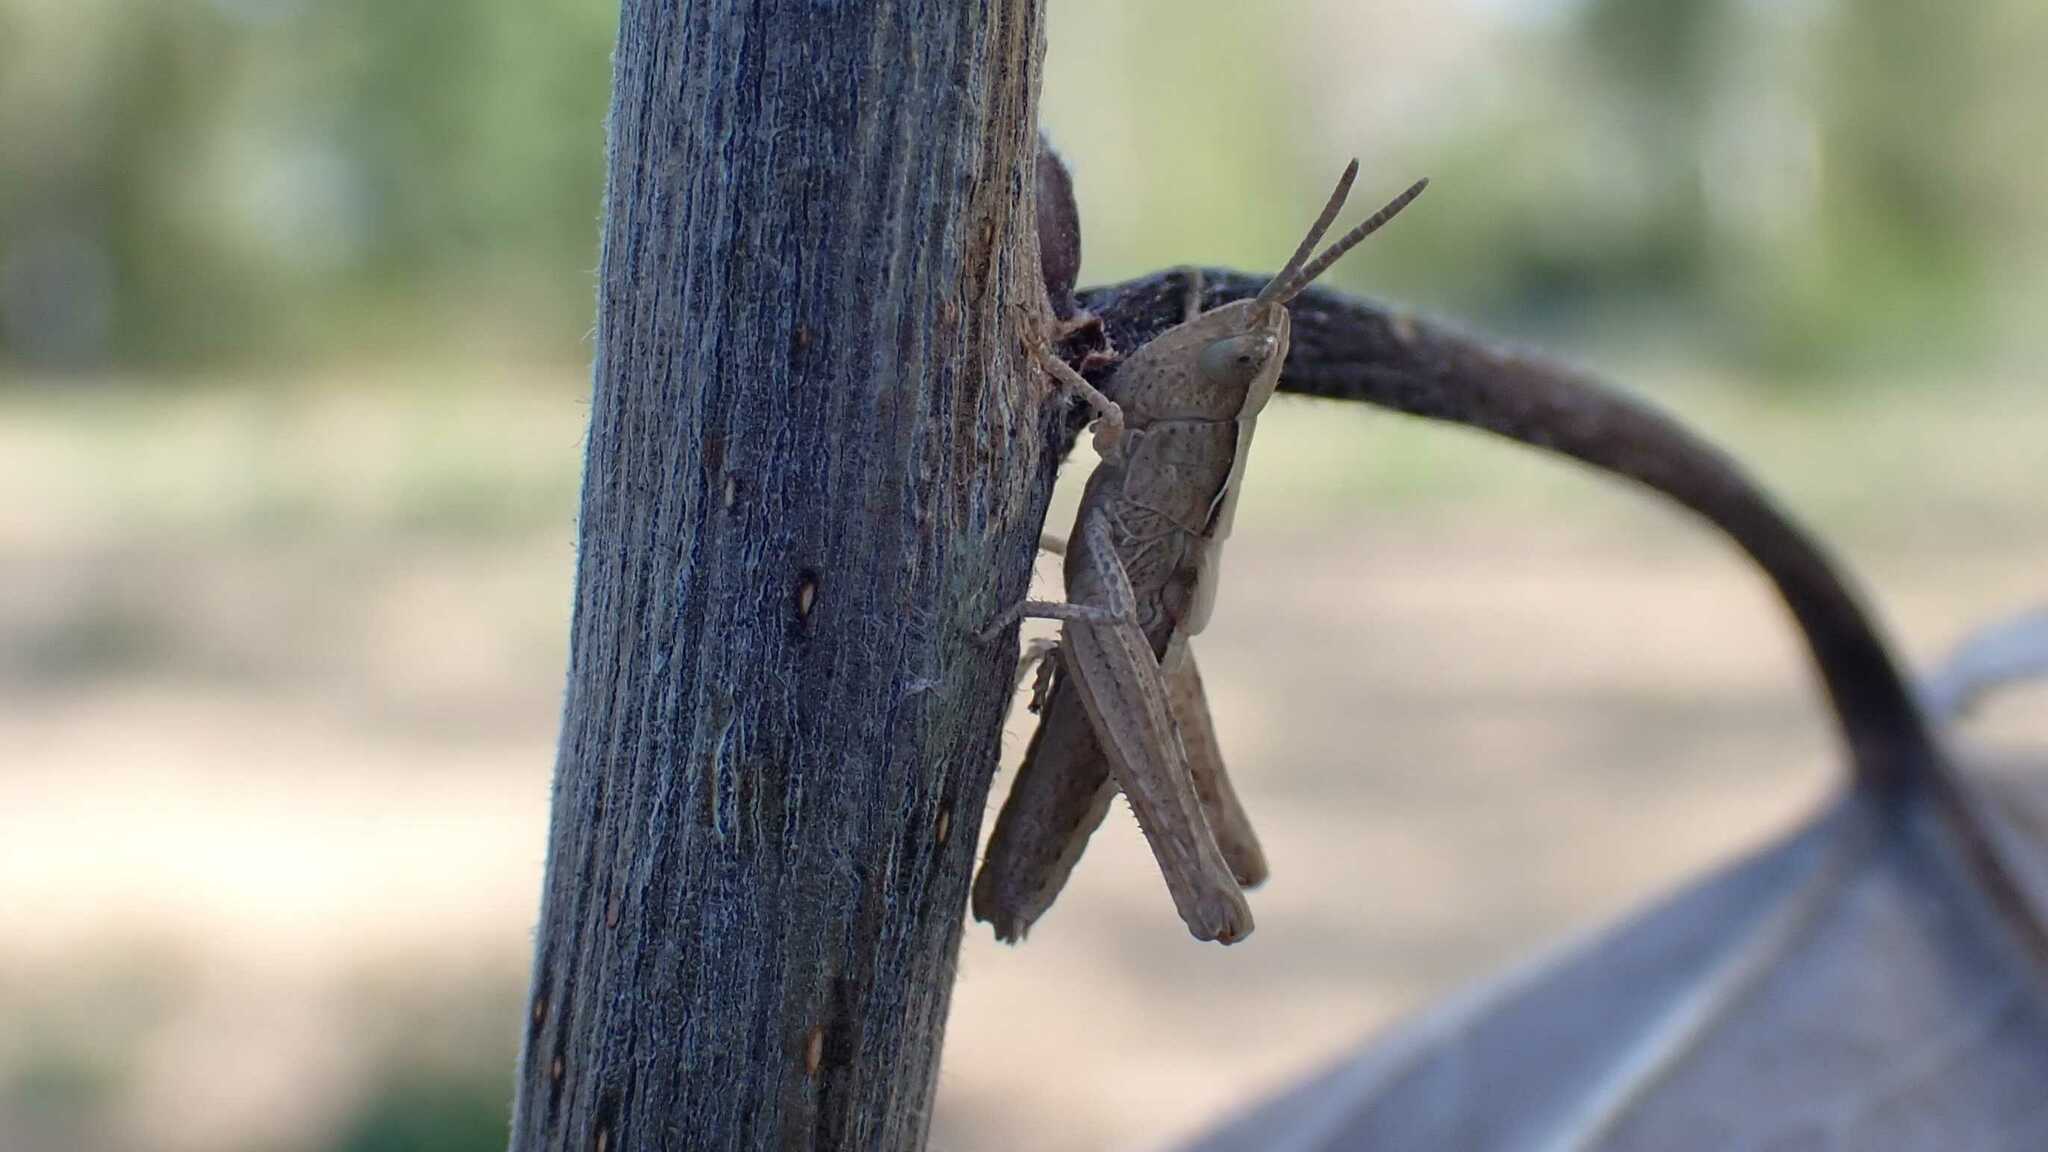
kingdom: Animalia
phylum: Arthropoda
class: Insecta
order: Orthoptera
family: Acrididae
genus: Glyptobothrus
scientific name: Glyptobothrus
